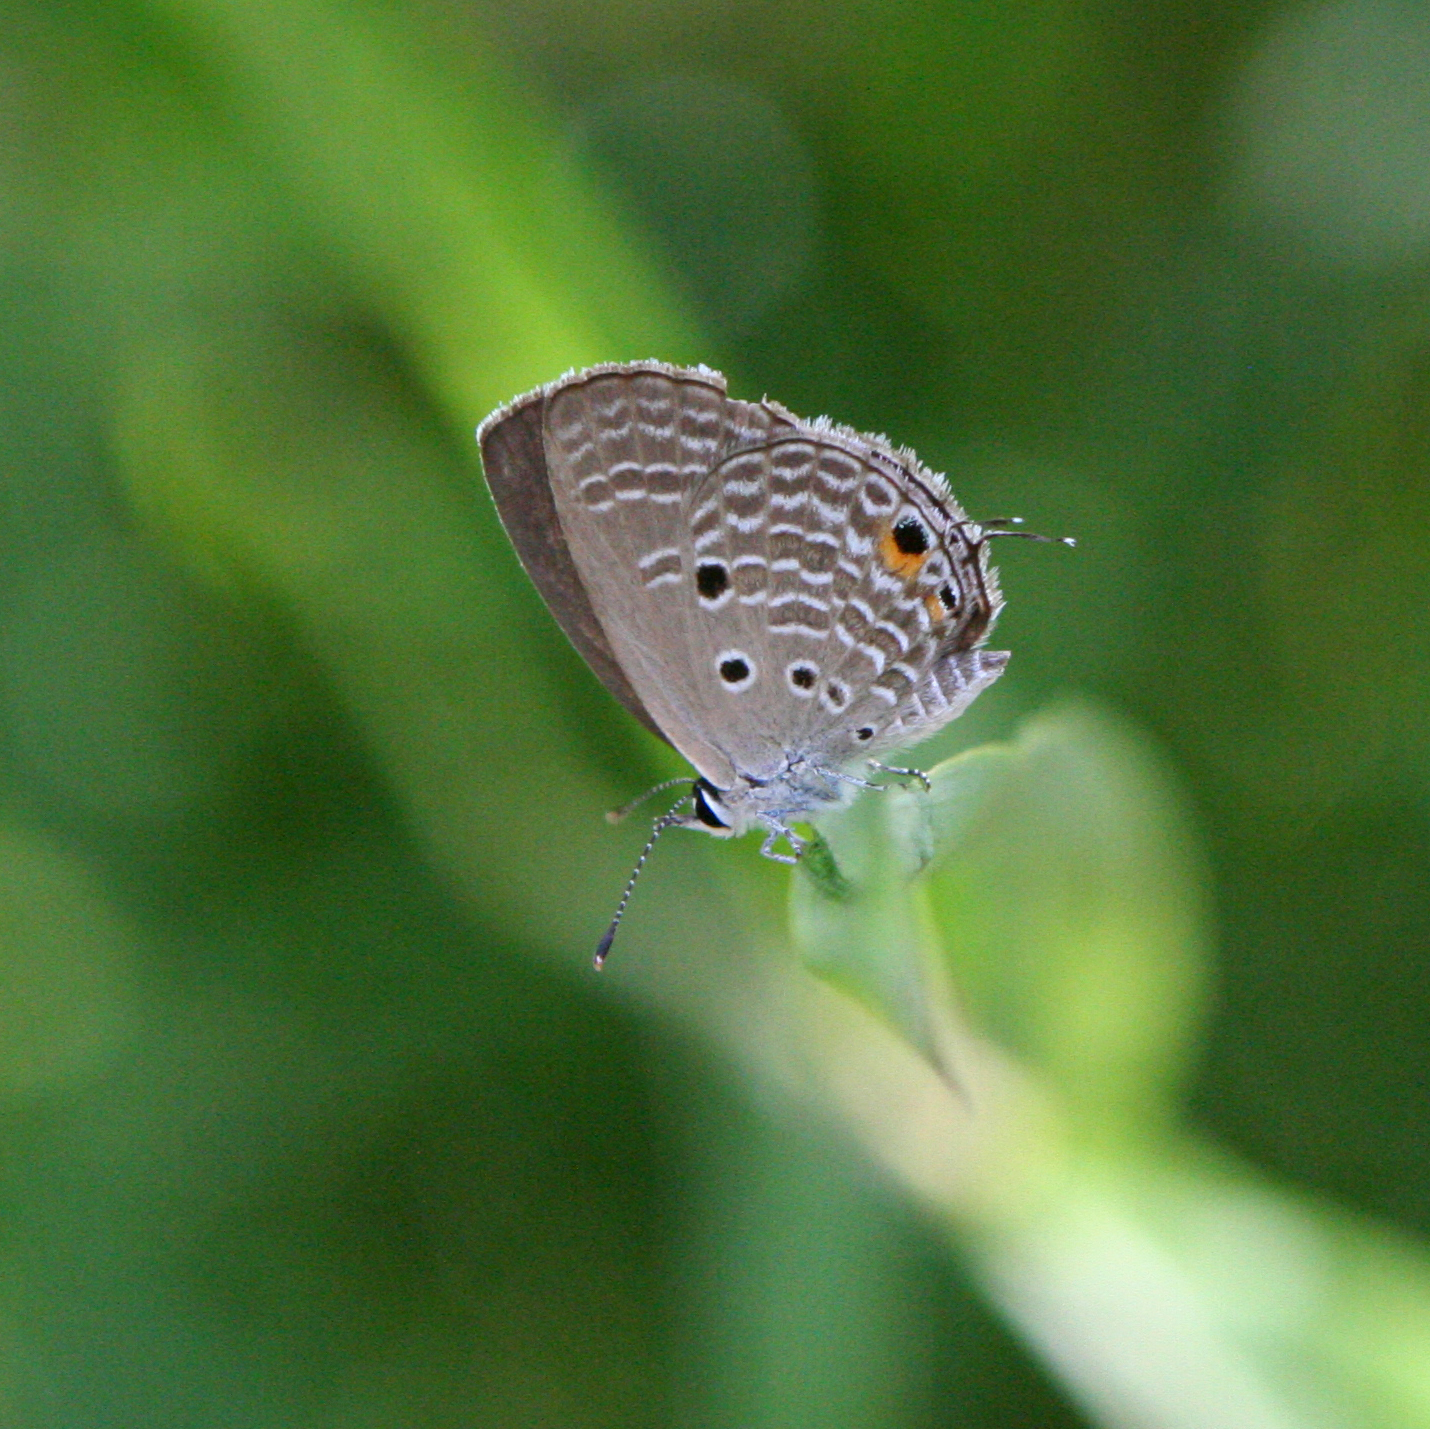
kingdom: Animalia
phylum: Arthropoda
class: Insecta
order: Lepidoptera
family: Lycaenidae
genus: Luthrodes
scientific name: Luthrodes pandava
